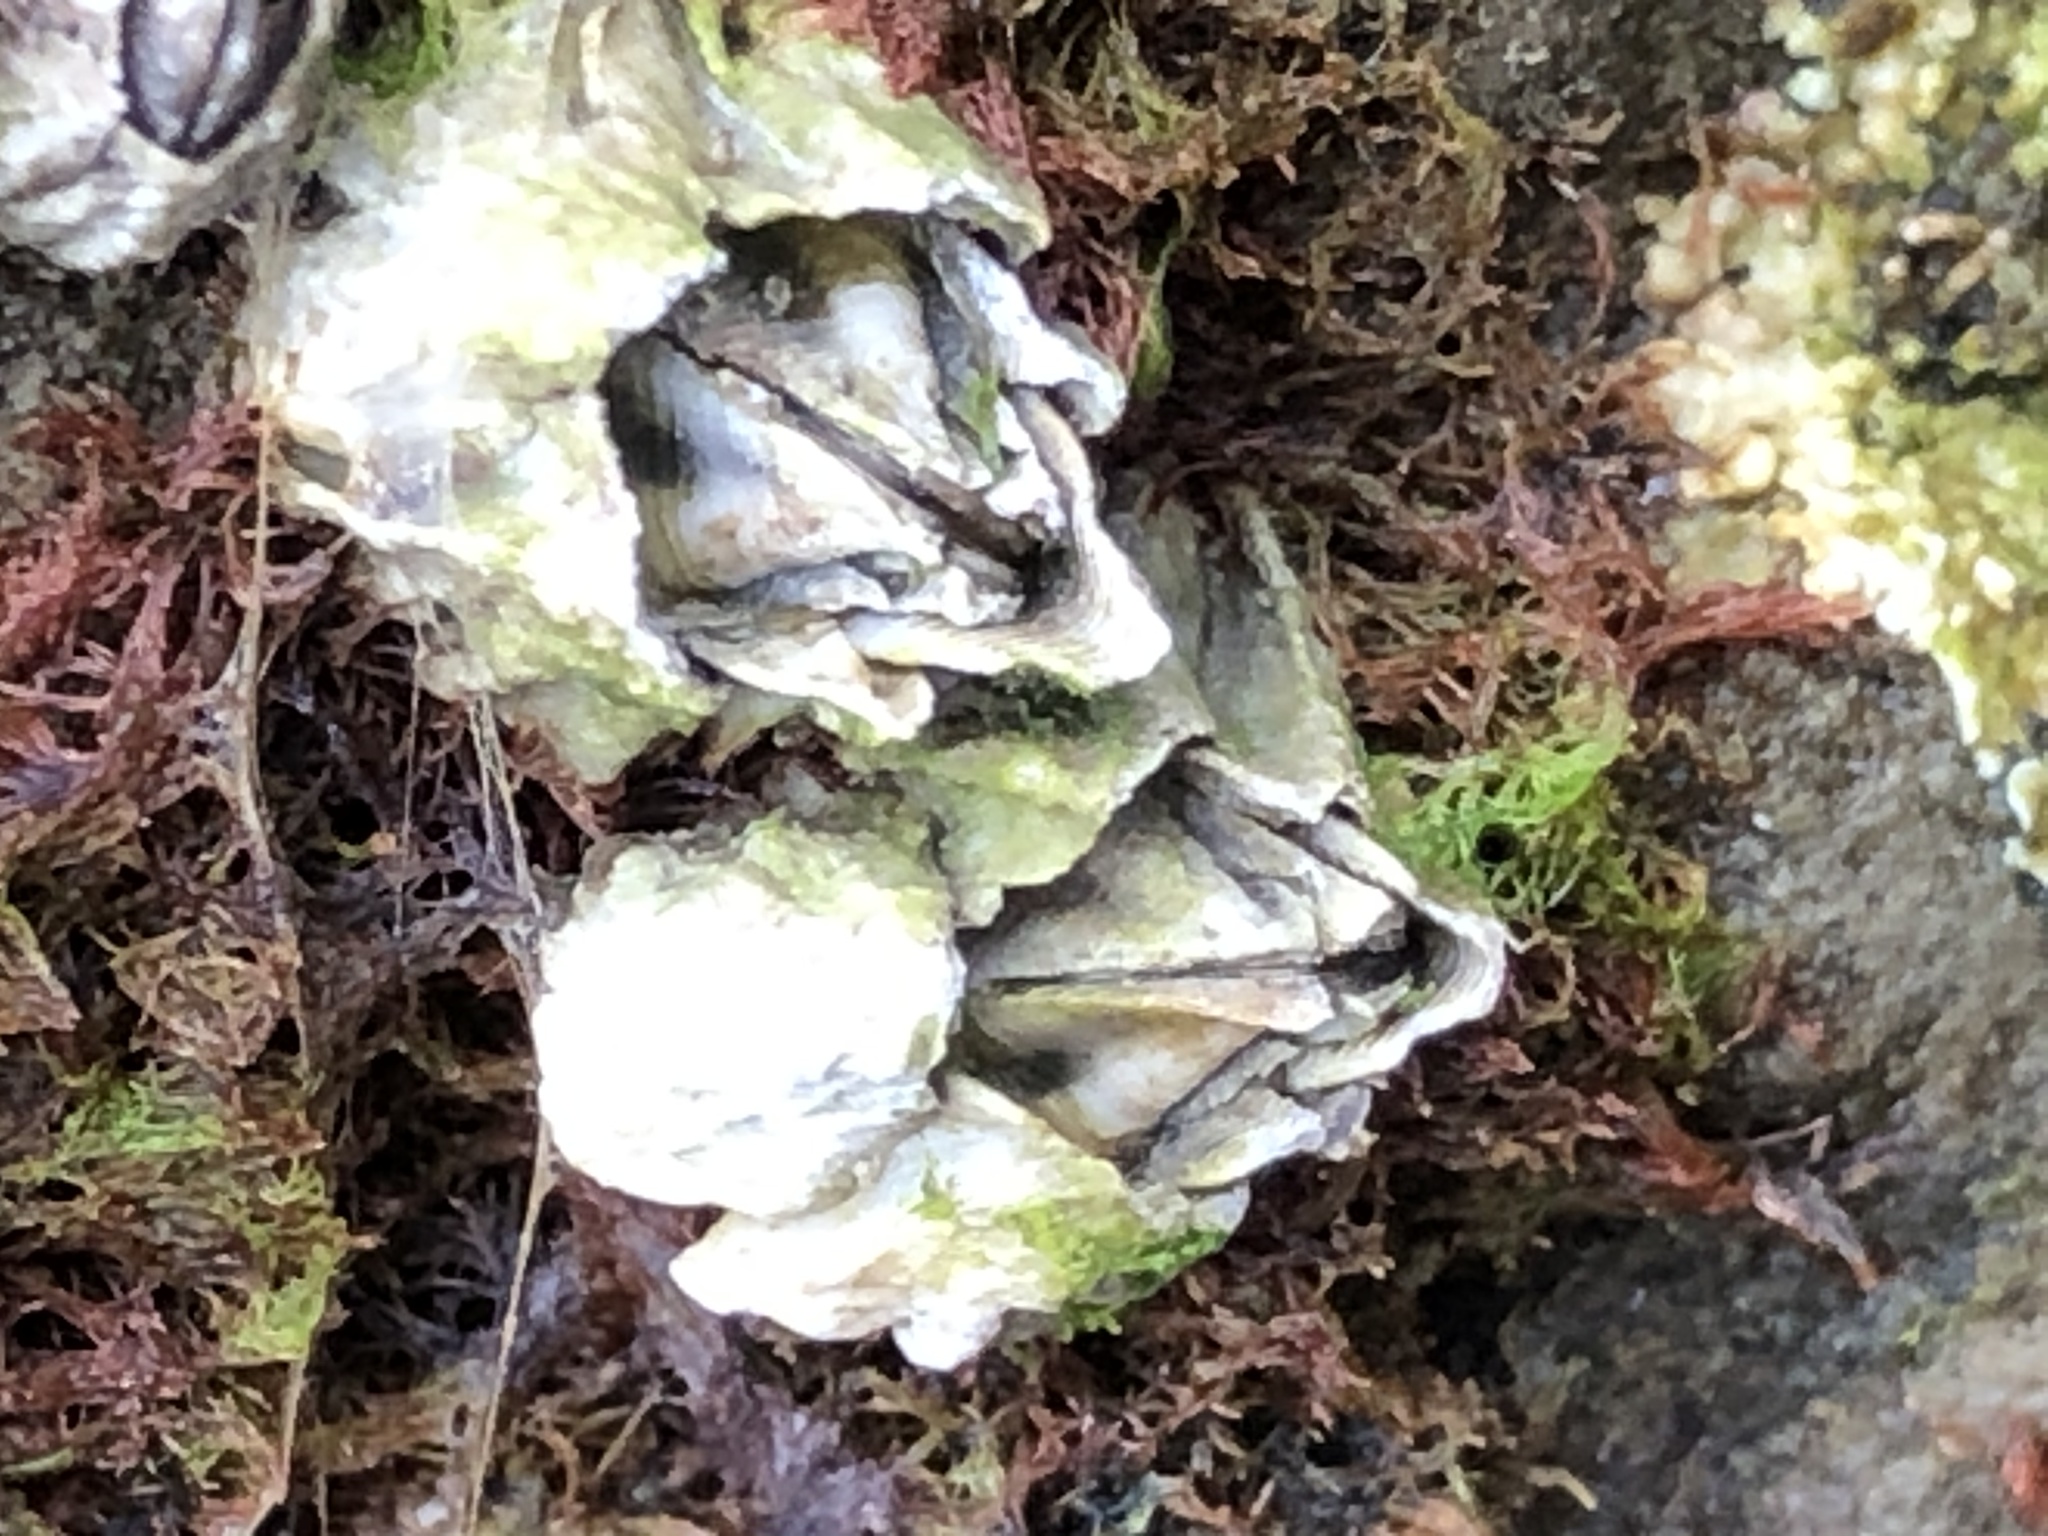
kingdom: Animalia
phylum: Arthropoda
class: Maxillopoda
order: Sessilia
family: Balanidae
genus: Balanus
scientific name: Balanus glandula
